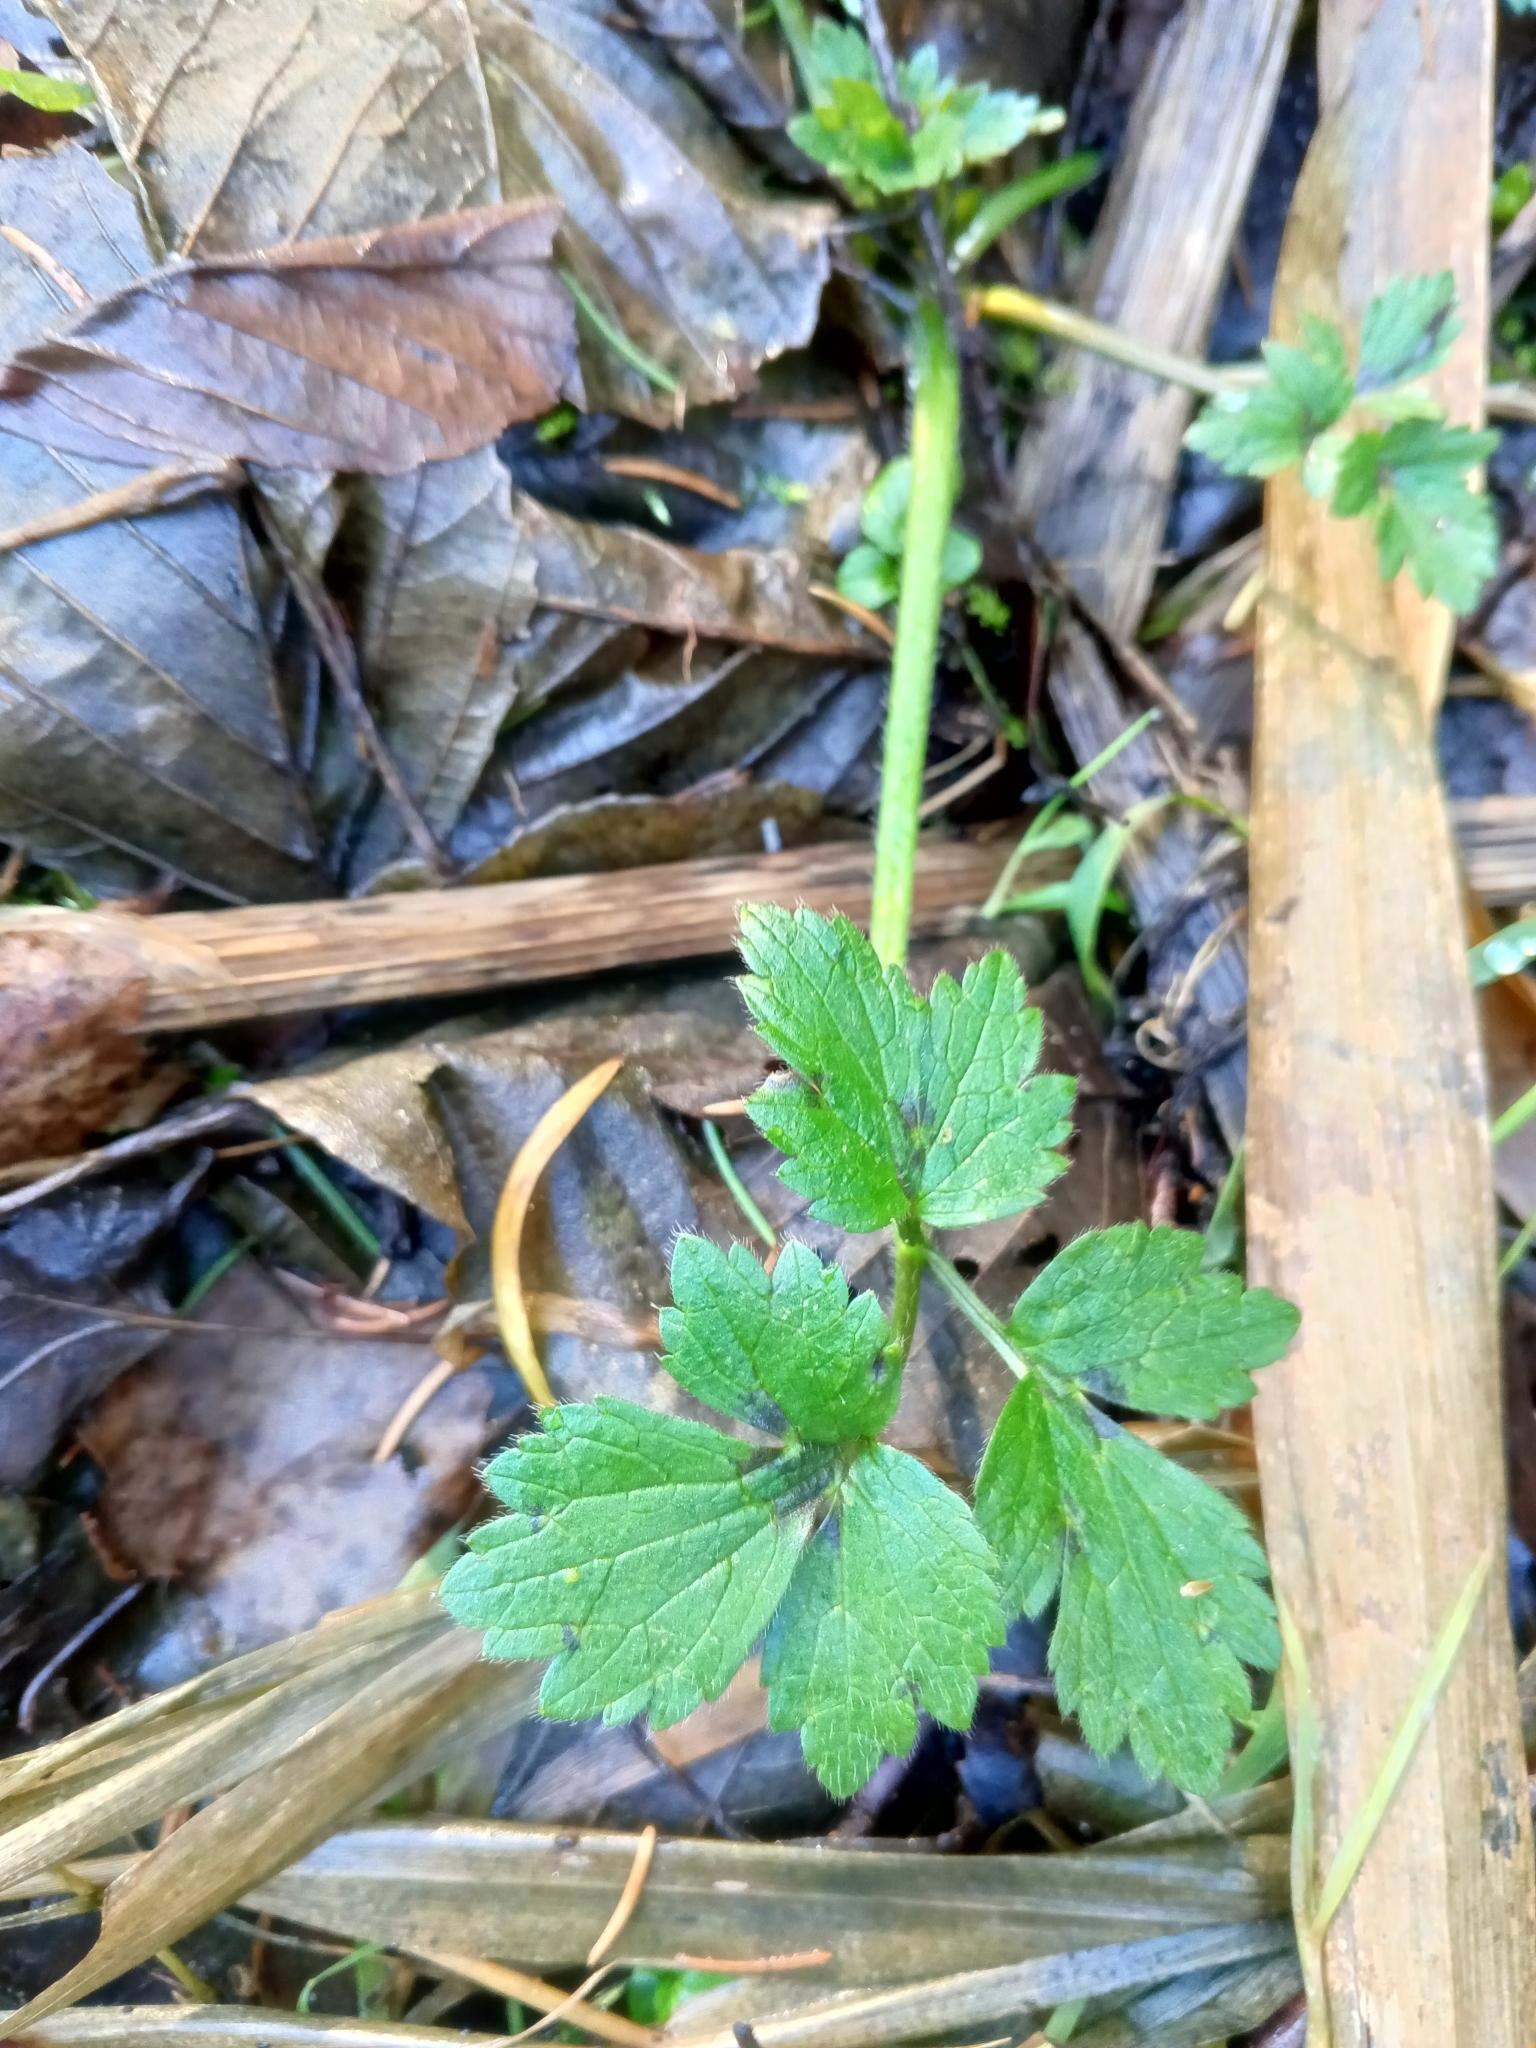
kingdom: Plantae
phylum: Tracheophyta
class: Magnoliopsida
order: Ranunculales
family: Ranunculaceae
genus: Ranunculus
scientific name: Ranunculus repens
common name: Creeping buttercup
